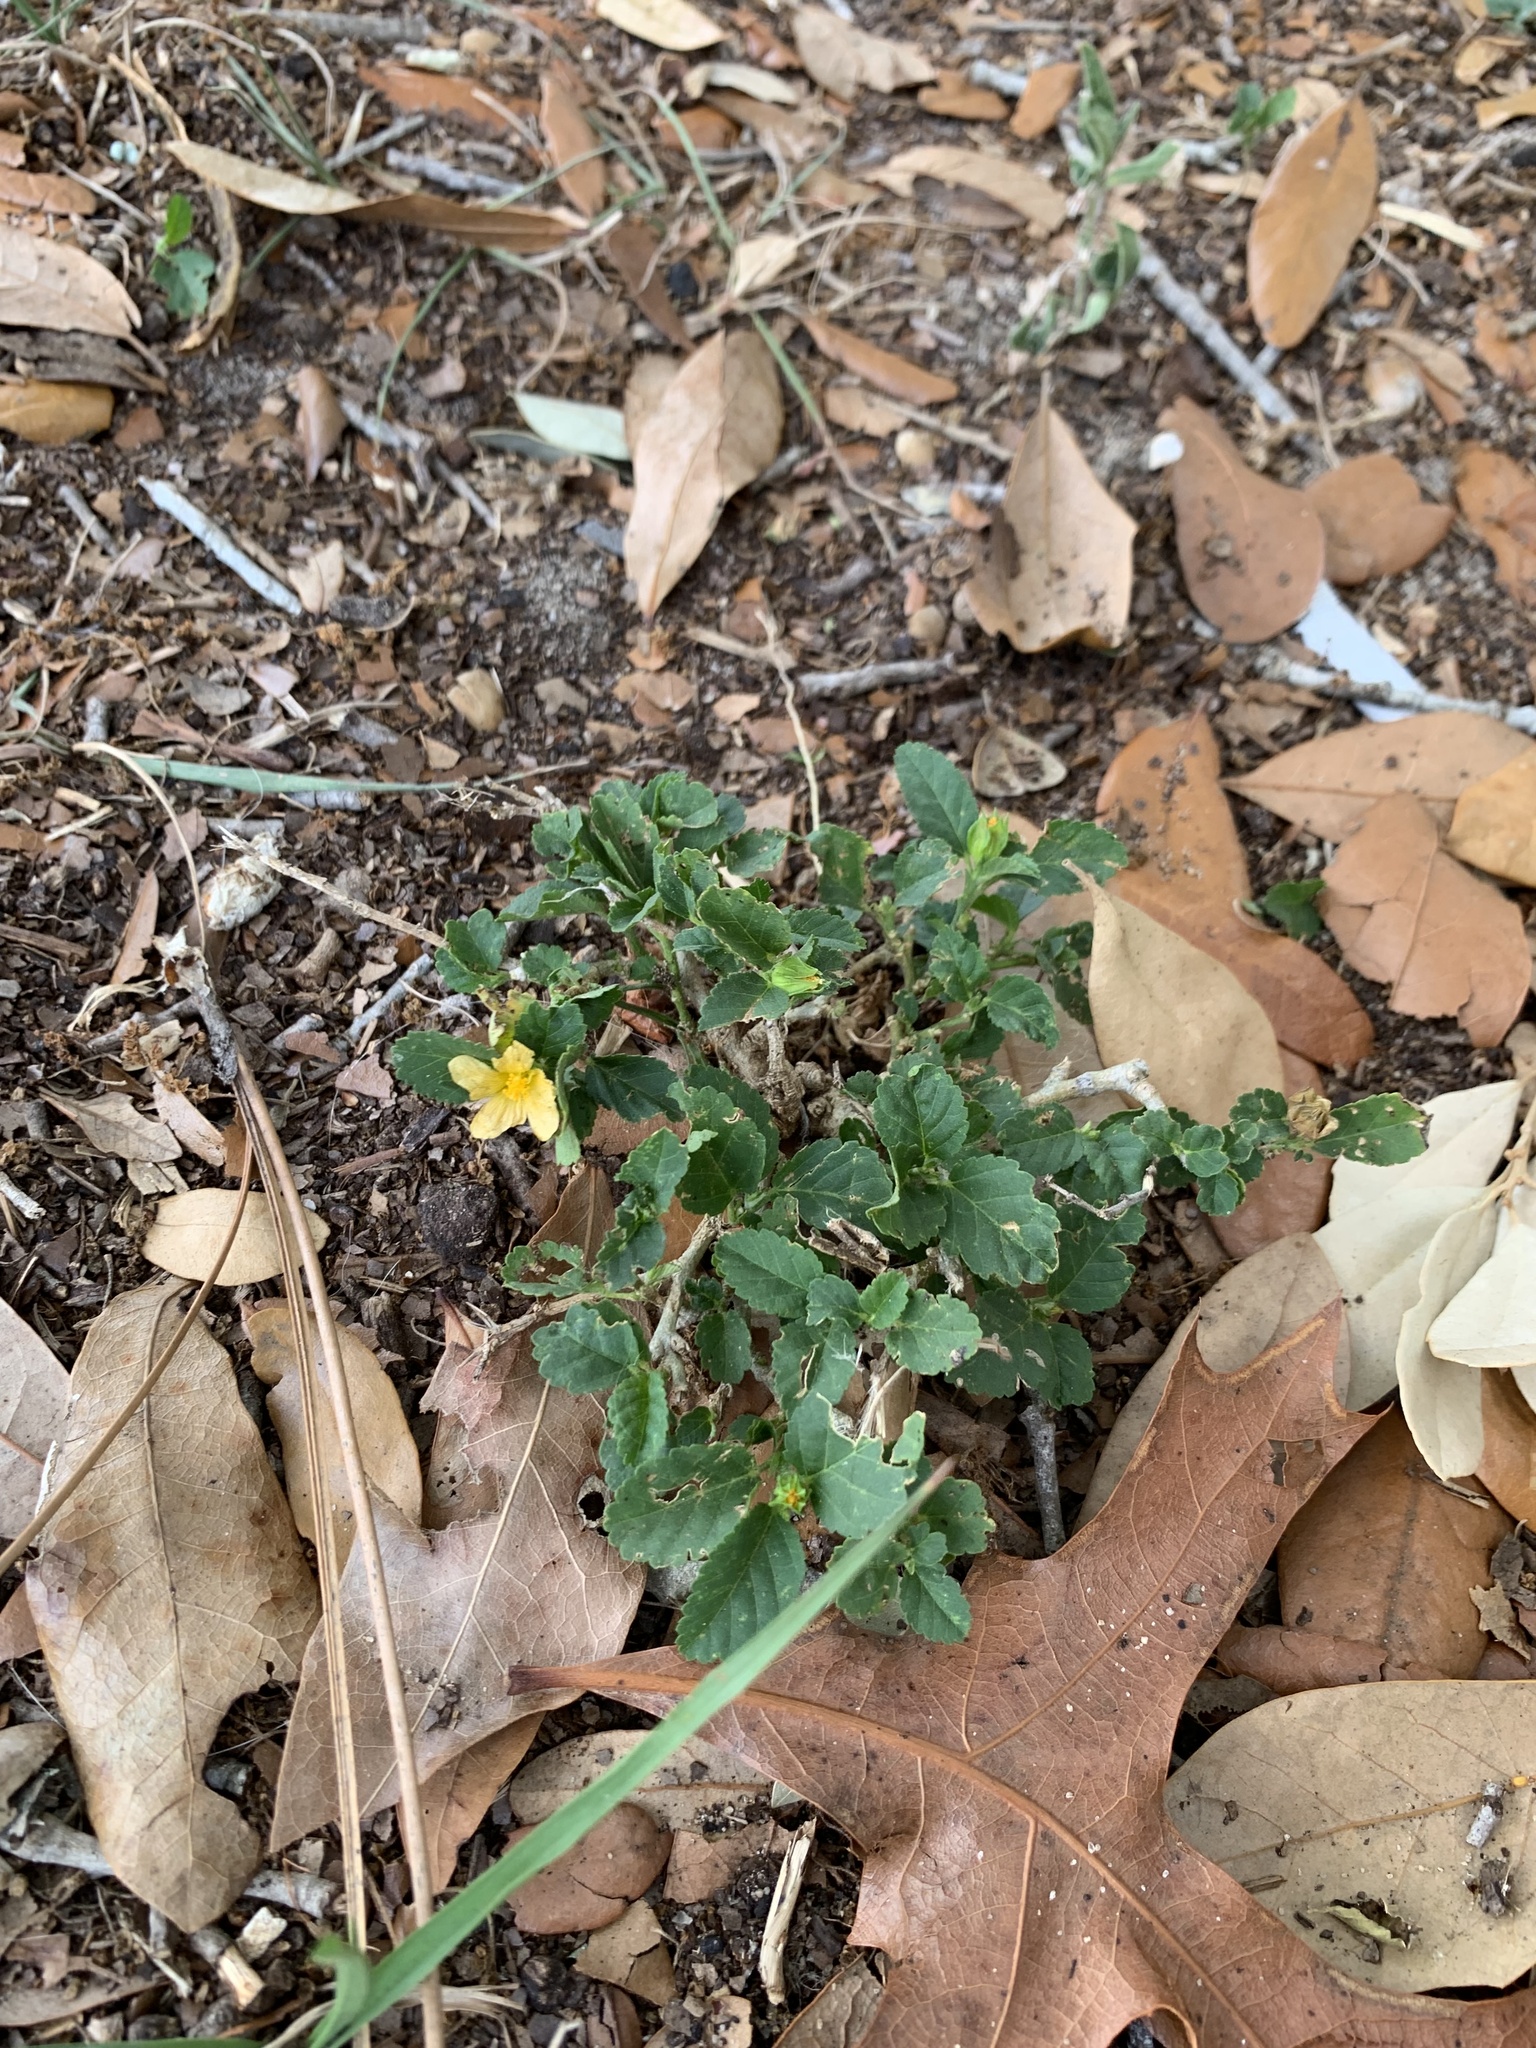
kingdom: Plantae
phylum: Tracheophyta
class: Magnoliopsida
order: Malvales
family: Malvaceae
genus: Sida
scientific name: Sida ulmifolia
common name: Broom weed
